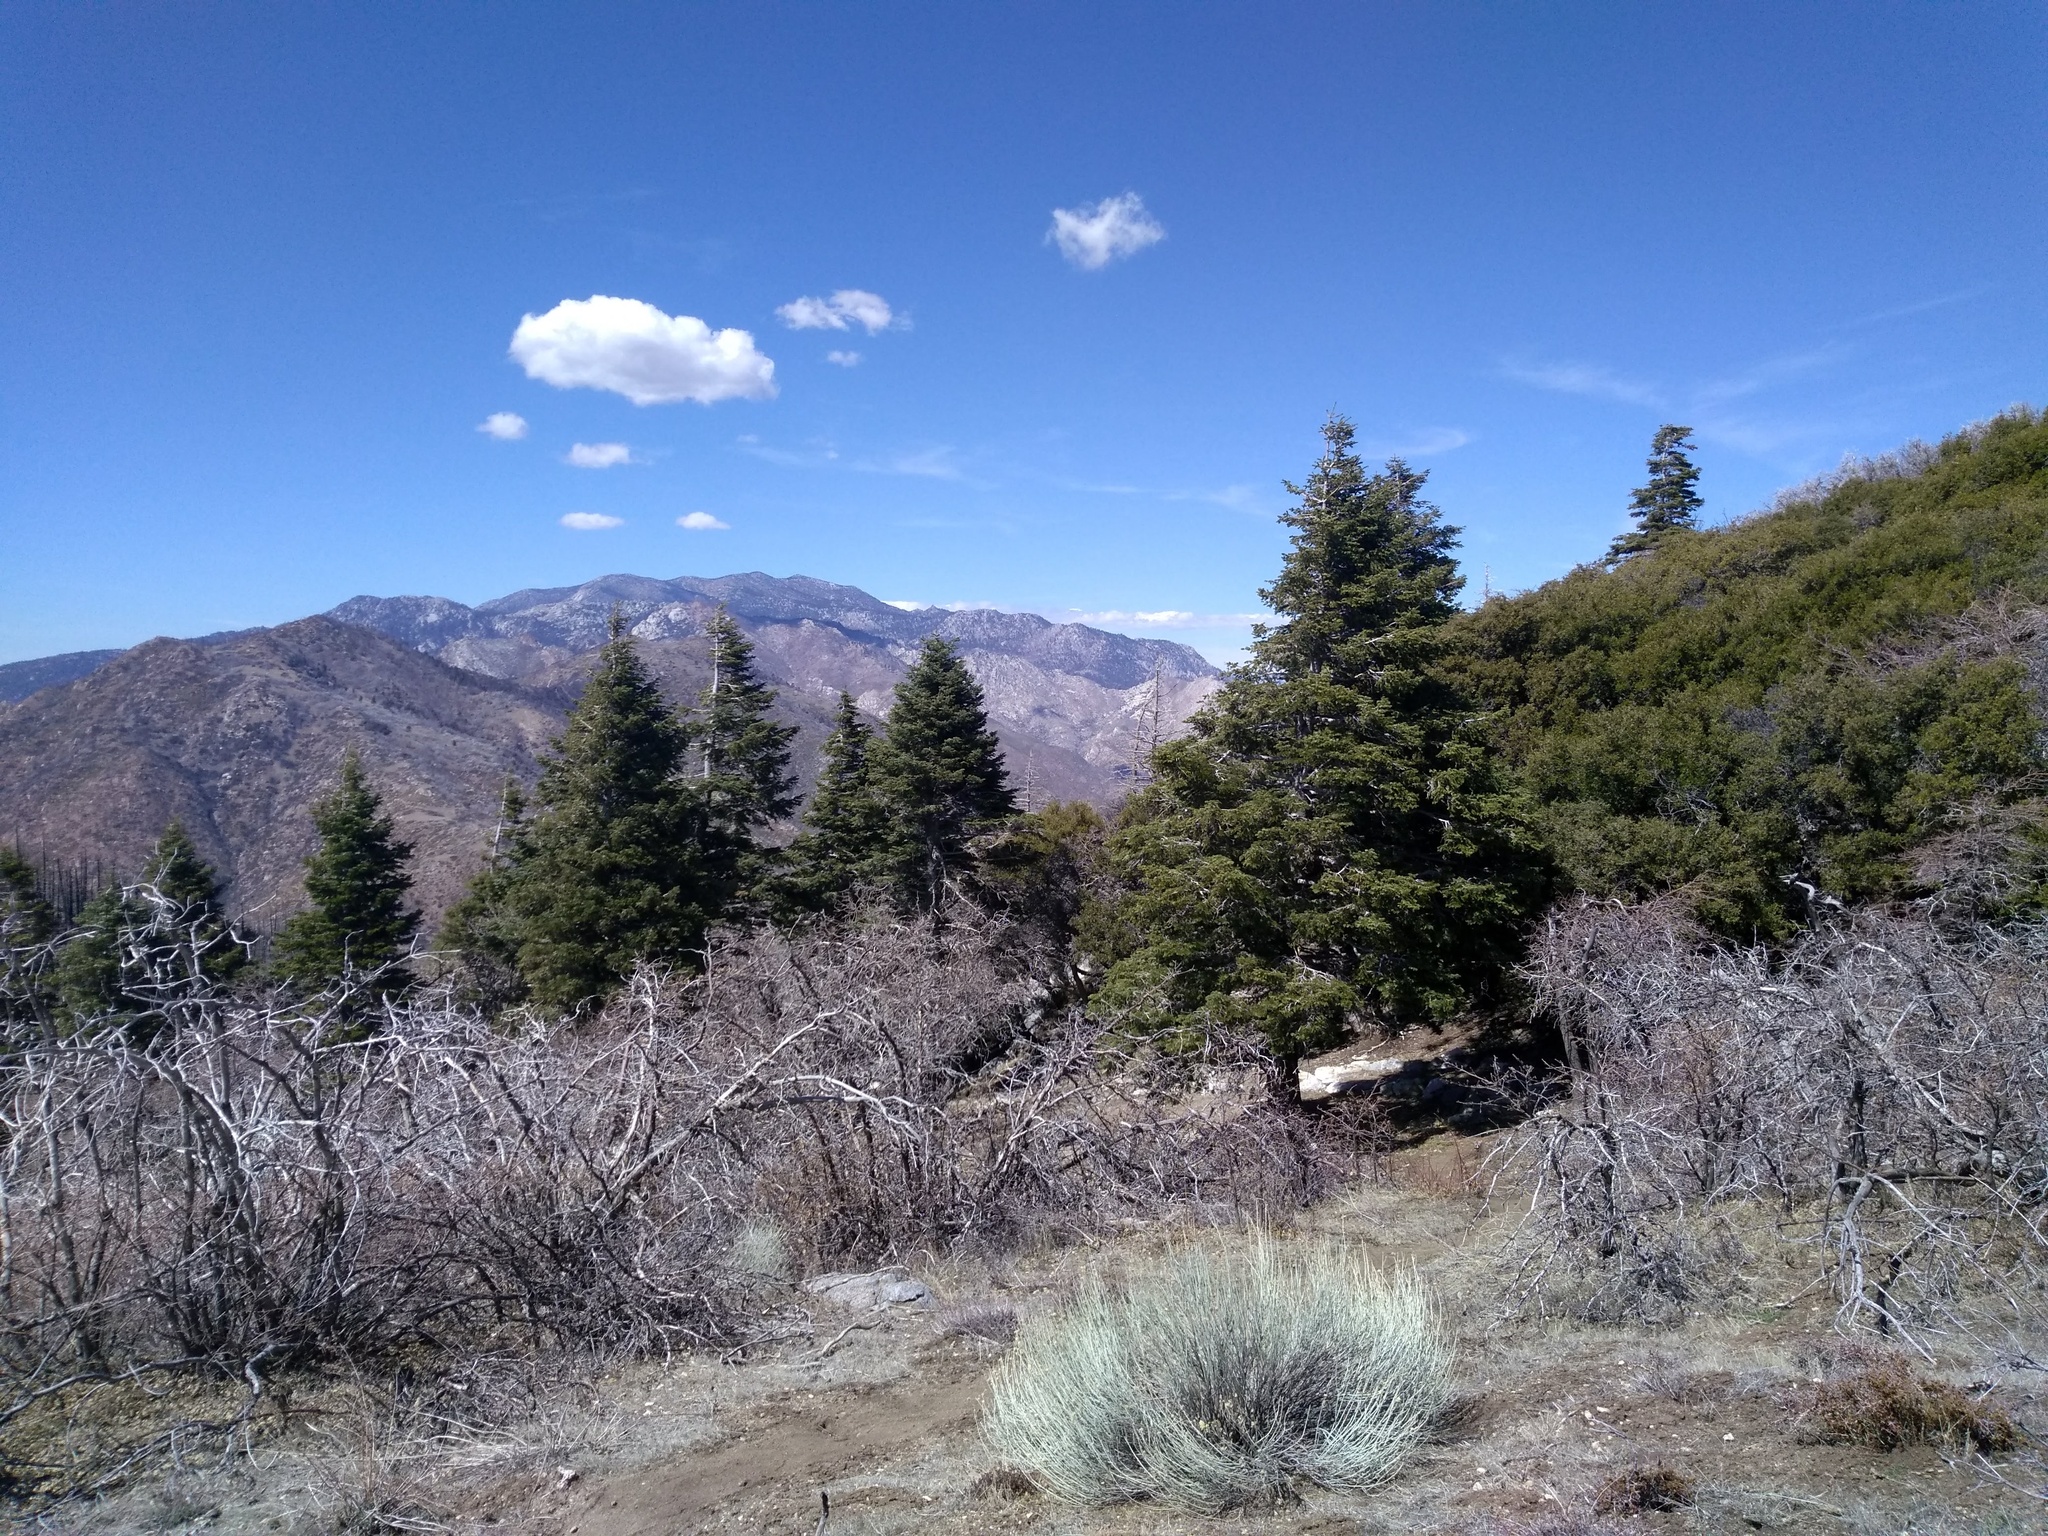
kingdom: Plantae
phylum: Tracheophyta
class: Pinopsida
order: Pinales
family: Pinaceae
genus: Abies
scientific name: Abies concolor
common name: Colorado fir
